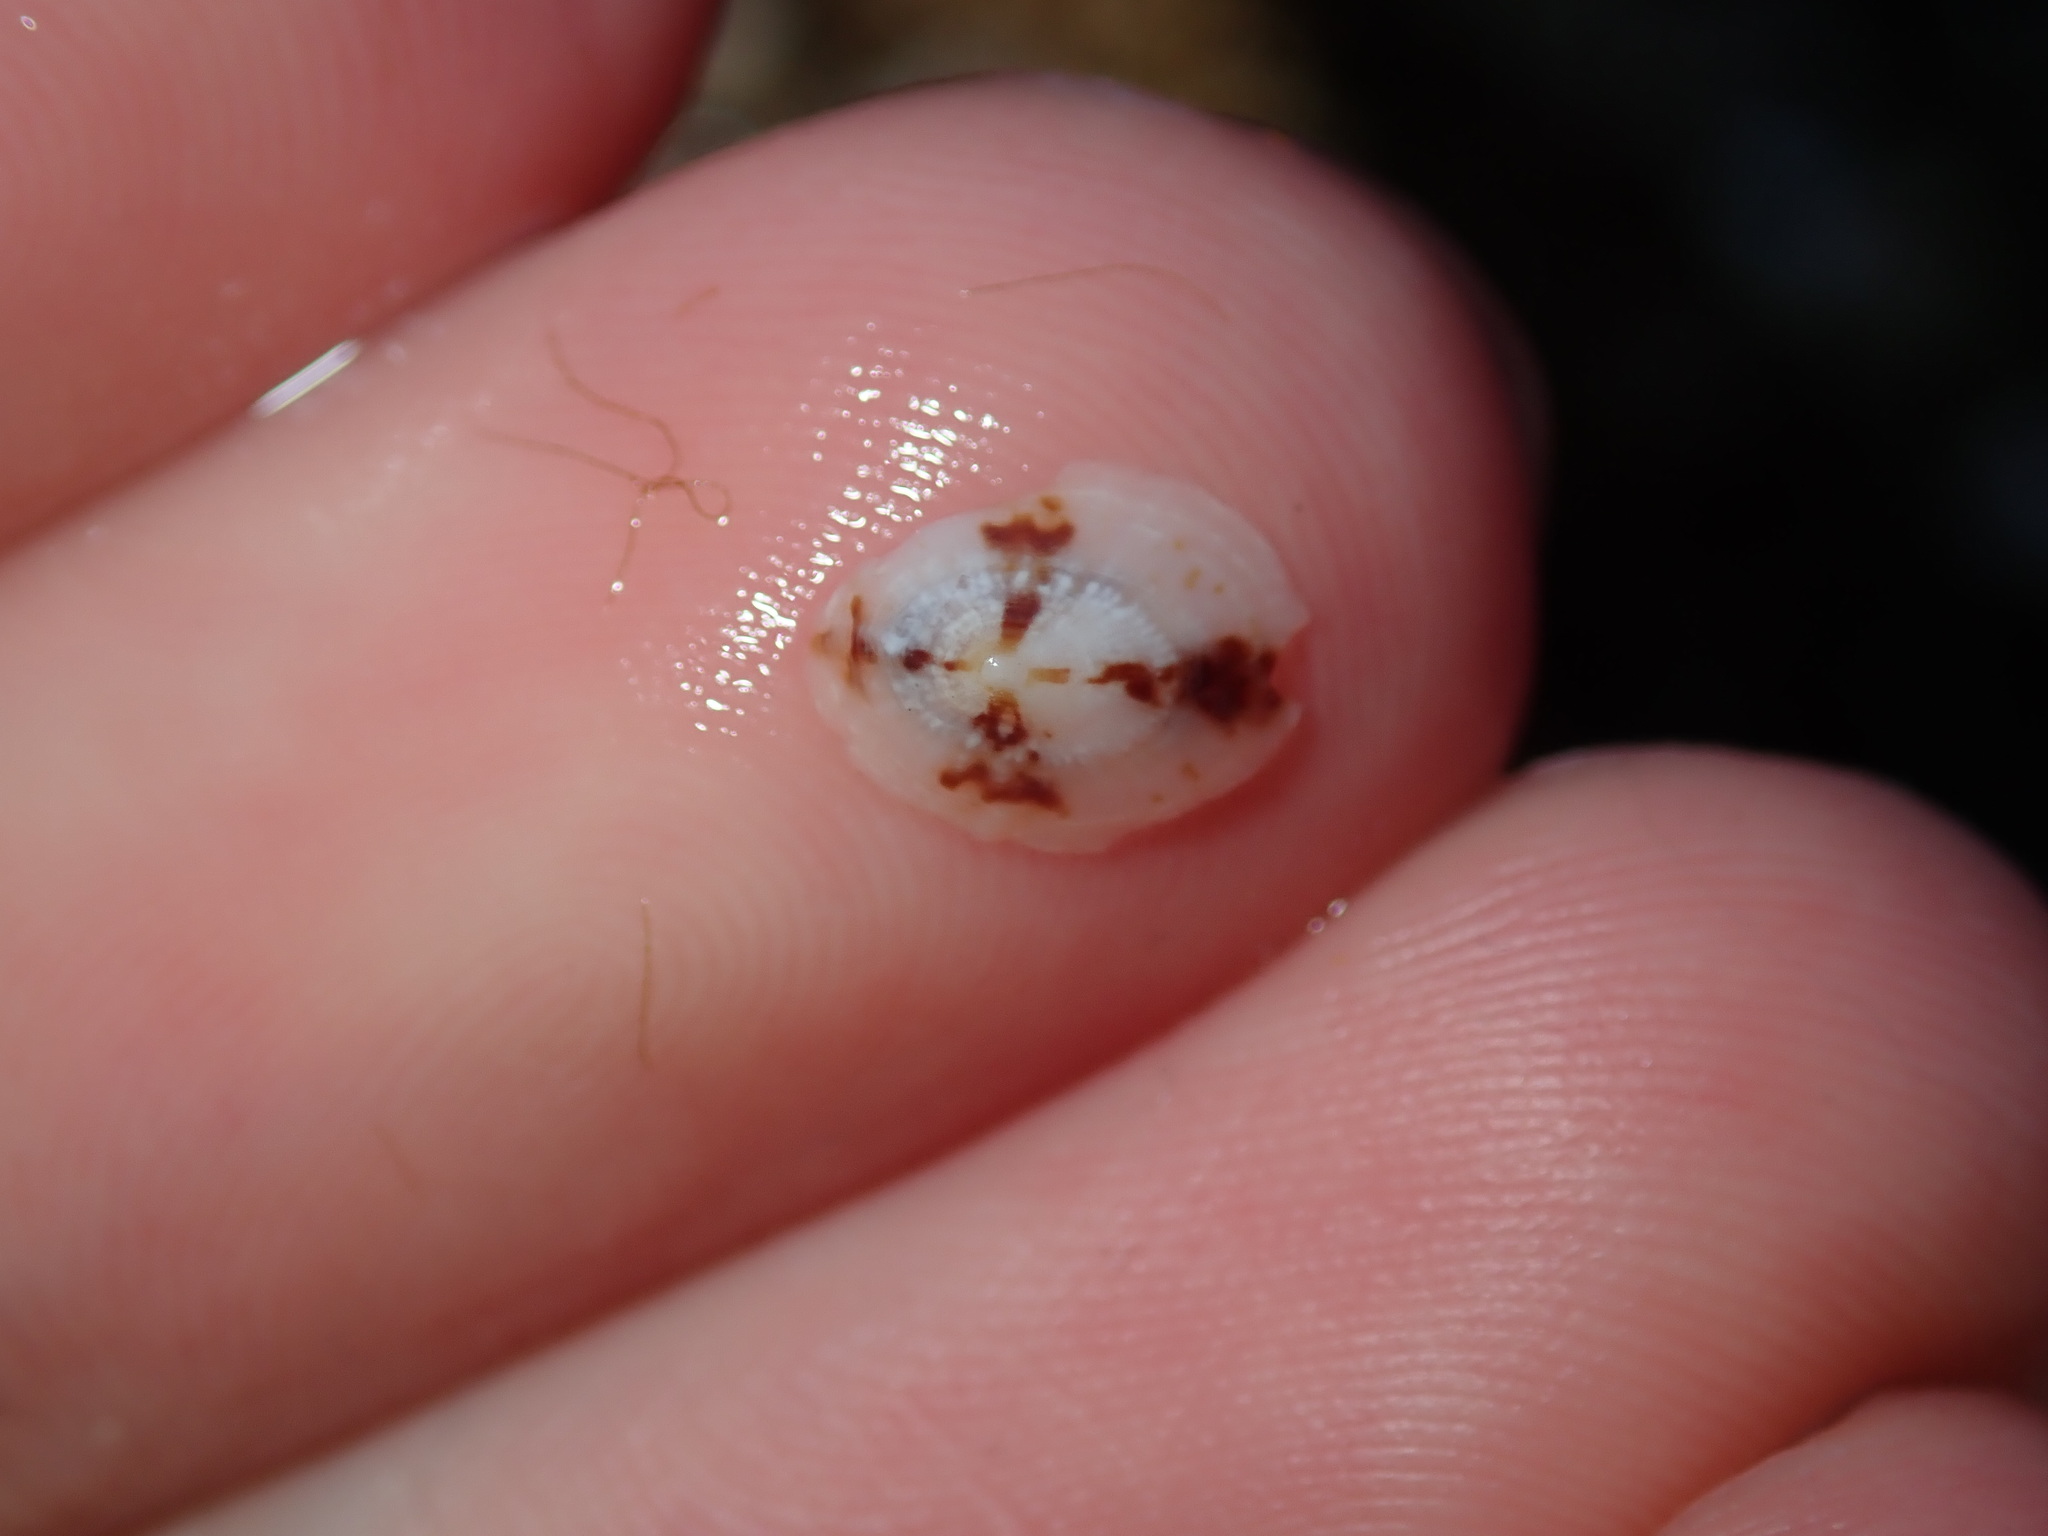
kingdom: Animalia
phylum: Mollusca
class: Gastropoda
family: Lottiidae
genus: Patelloida
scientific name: Patelloida mufria
